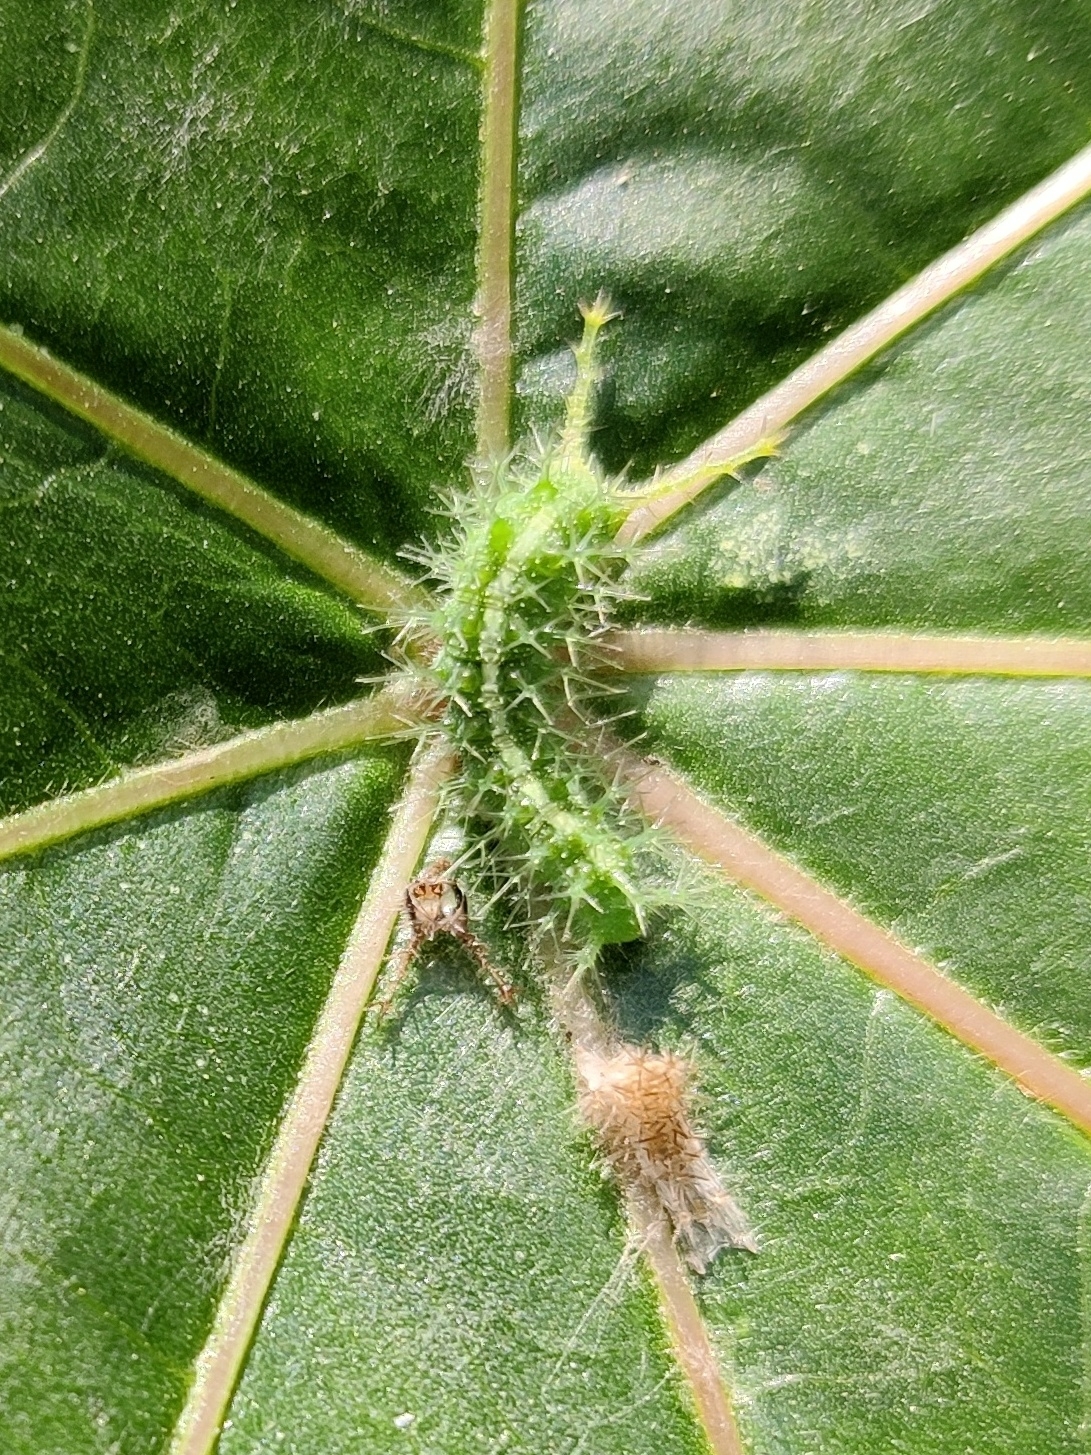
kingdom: Animalia
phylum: Arthropoda
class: Insecta
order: Lepidoptera
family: Nymphalidae
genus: Ariadne
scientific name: Ariadne merione
